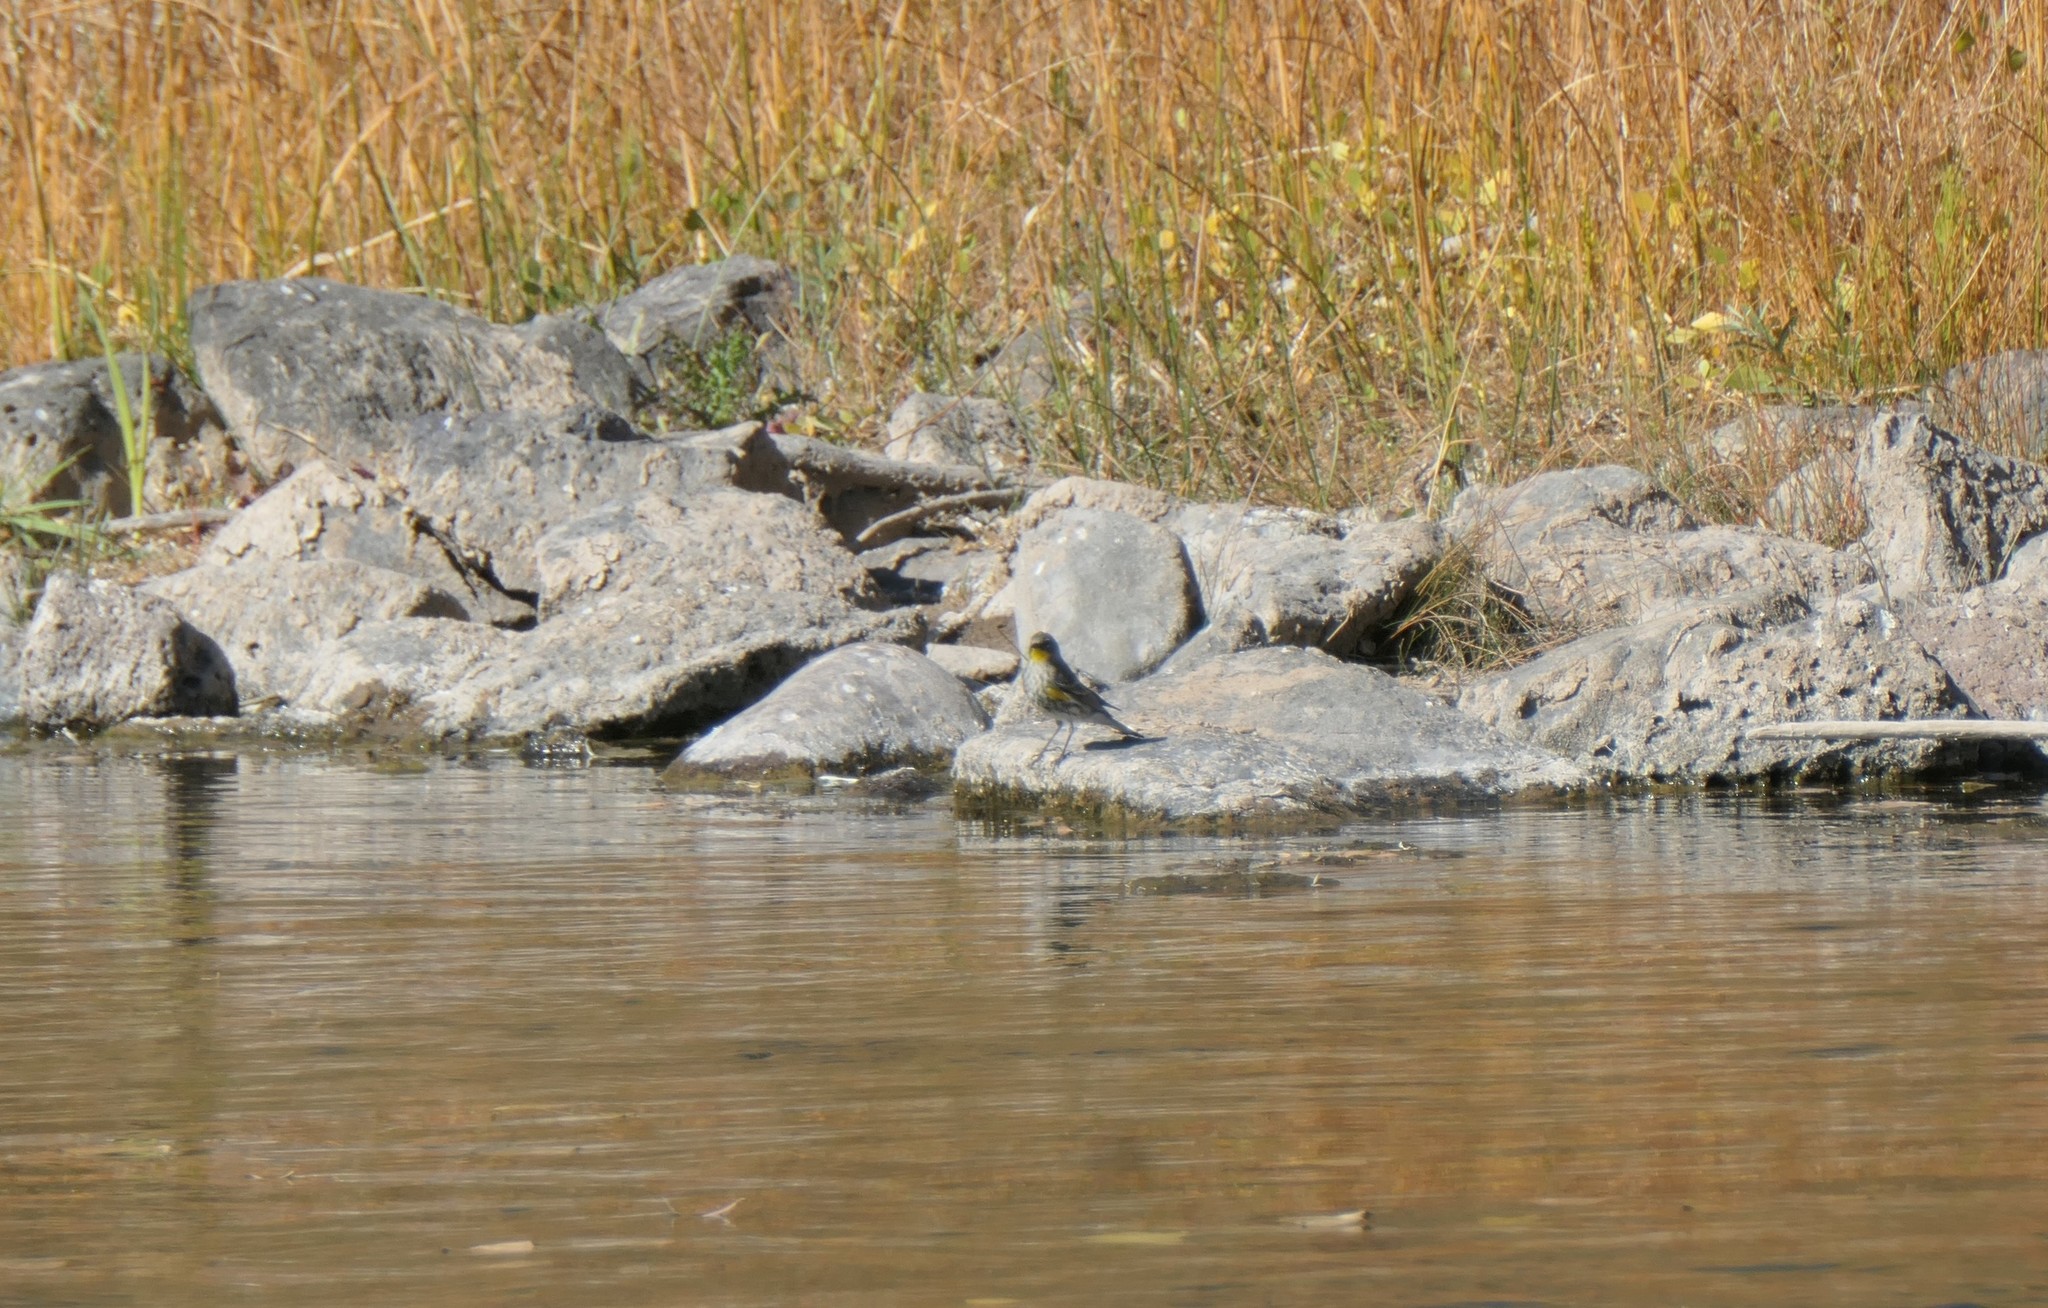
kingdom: Animalia
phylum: Chordata
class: Aves
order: Passeriformes
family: Parulidae
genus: Setophaga
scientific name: Setophaga auduboni
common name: Audubon's warbler
